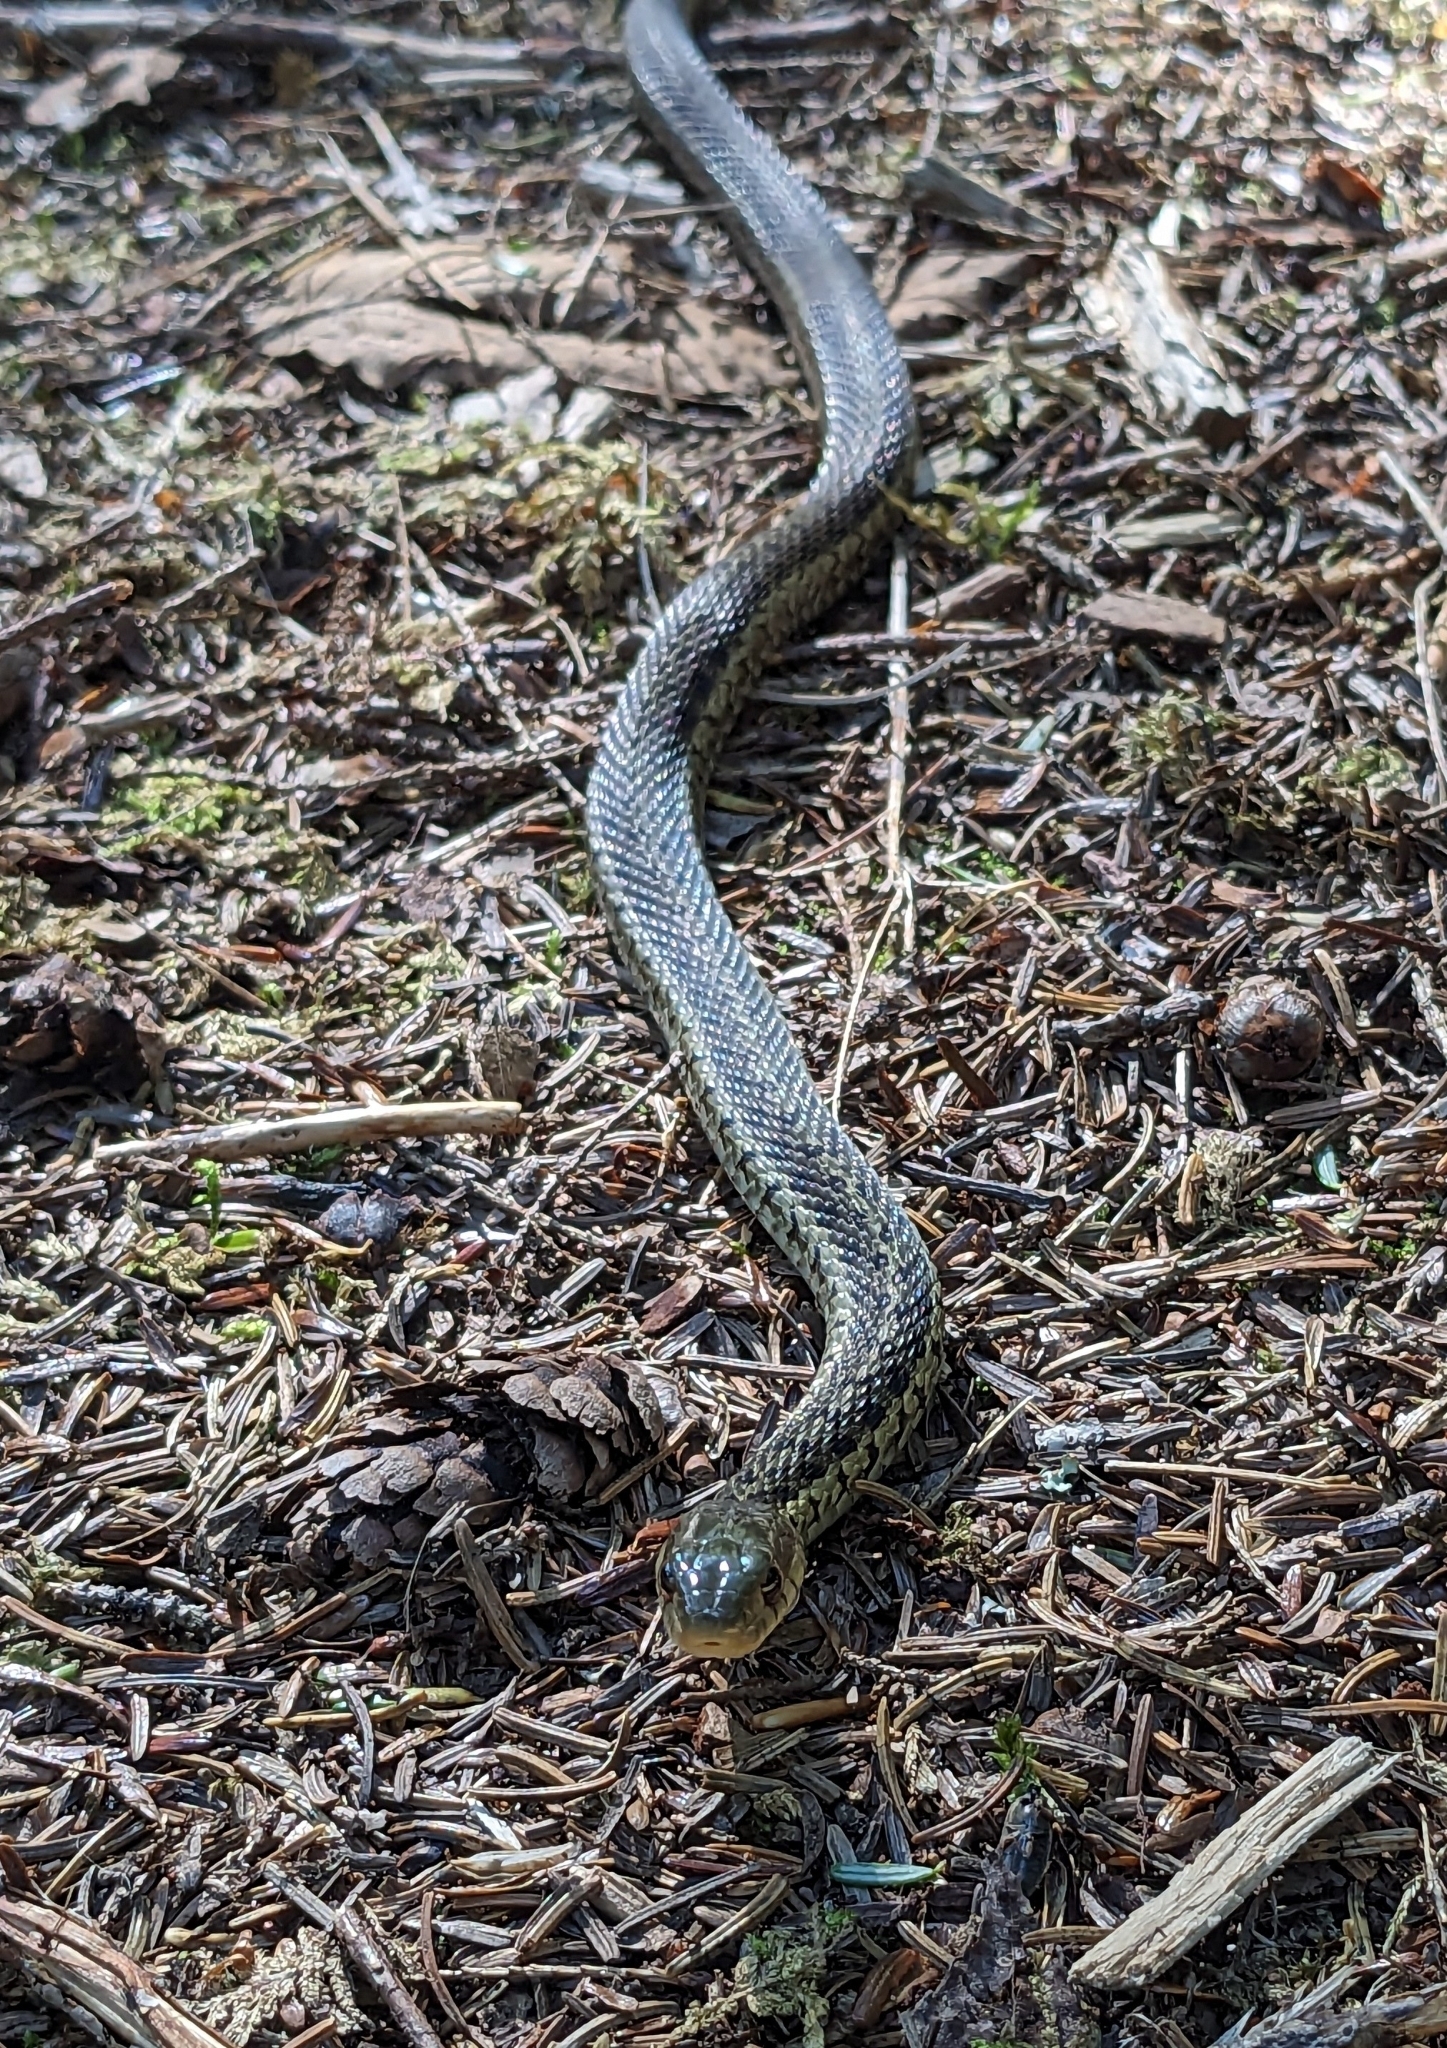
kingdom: Animalia
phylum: Chordata
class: Squamata
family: Colubridae
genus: Thamnophis
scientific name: Thamnophis sirtalis
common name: Common garter snake
